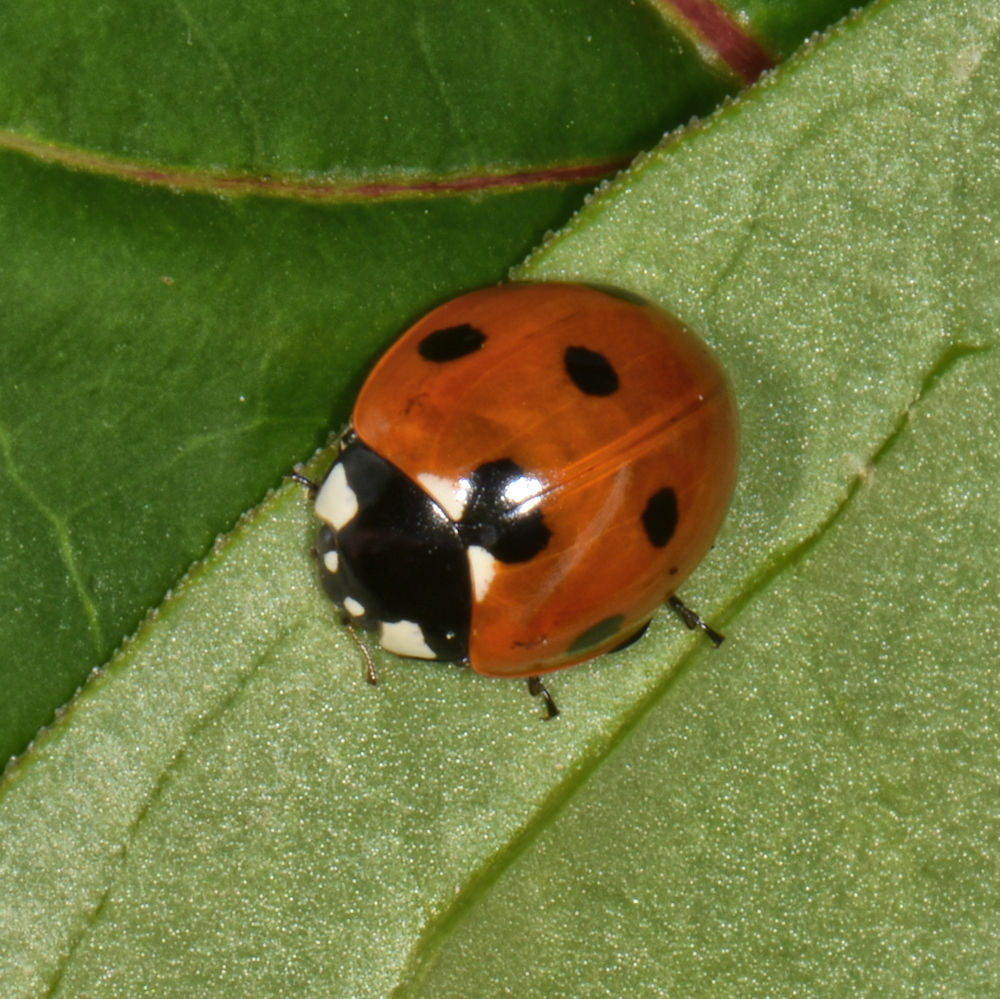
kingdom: Animalia
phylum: Arthropoda
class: Insecta
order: Coleoptera
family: Coccinellidae
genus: Coccinella
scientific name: Coccinella septempunctata
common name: Sevenspotted lady beetle
